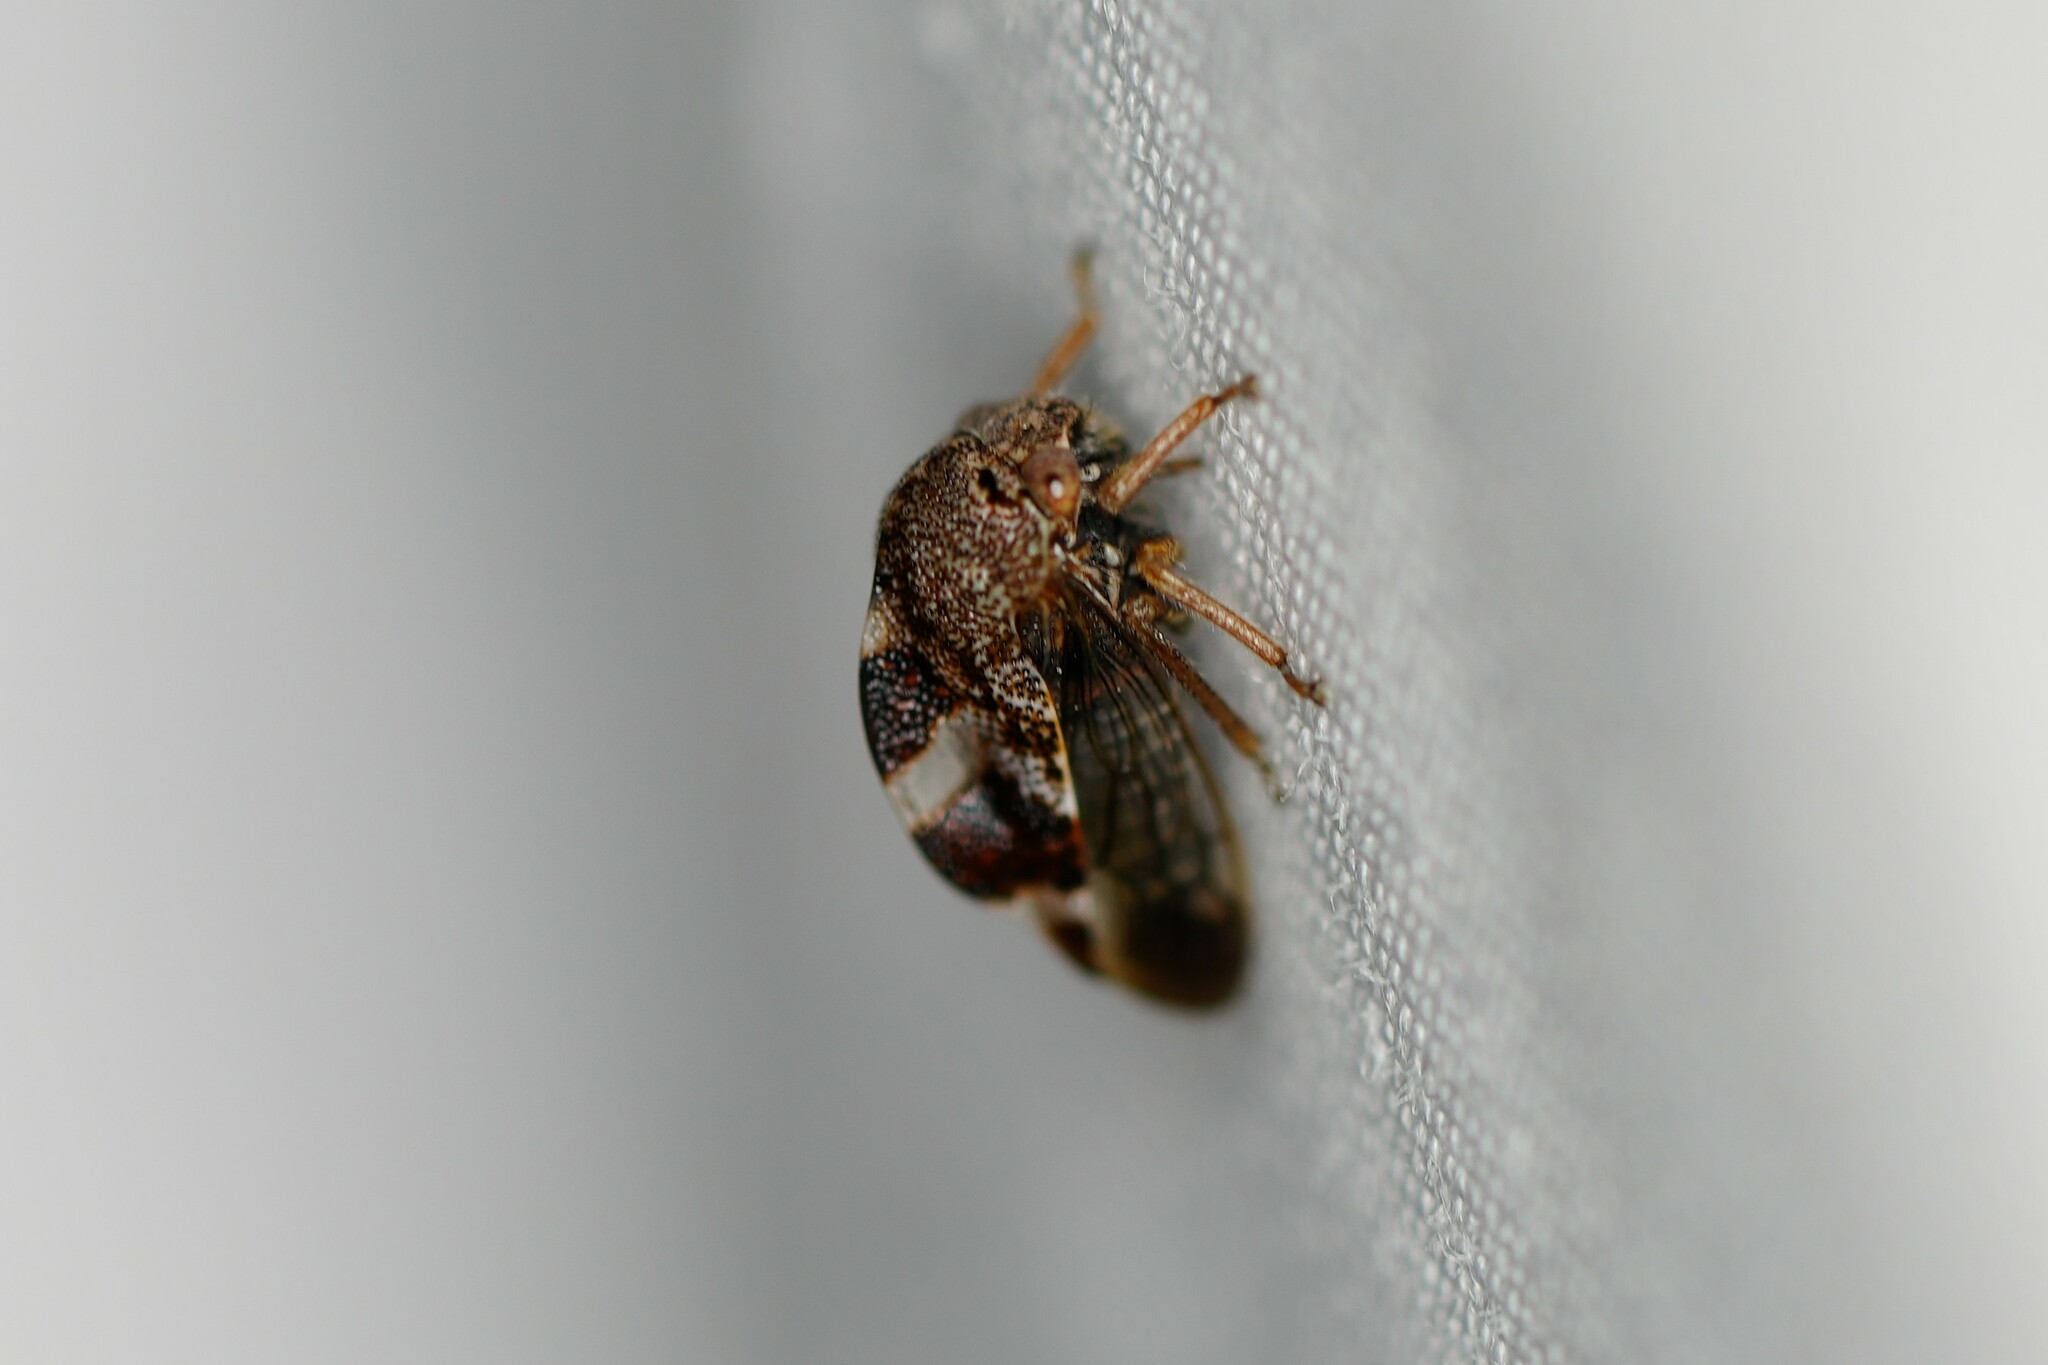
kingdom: Animalia
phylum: Arthropoda
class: Insecta
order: Hemiptera
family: Membracidae
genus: Cyrtolobus
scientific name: Cyrtolobus tuberosa
